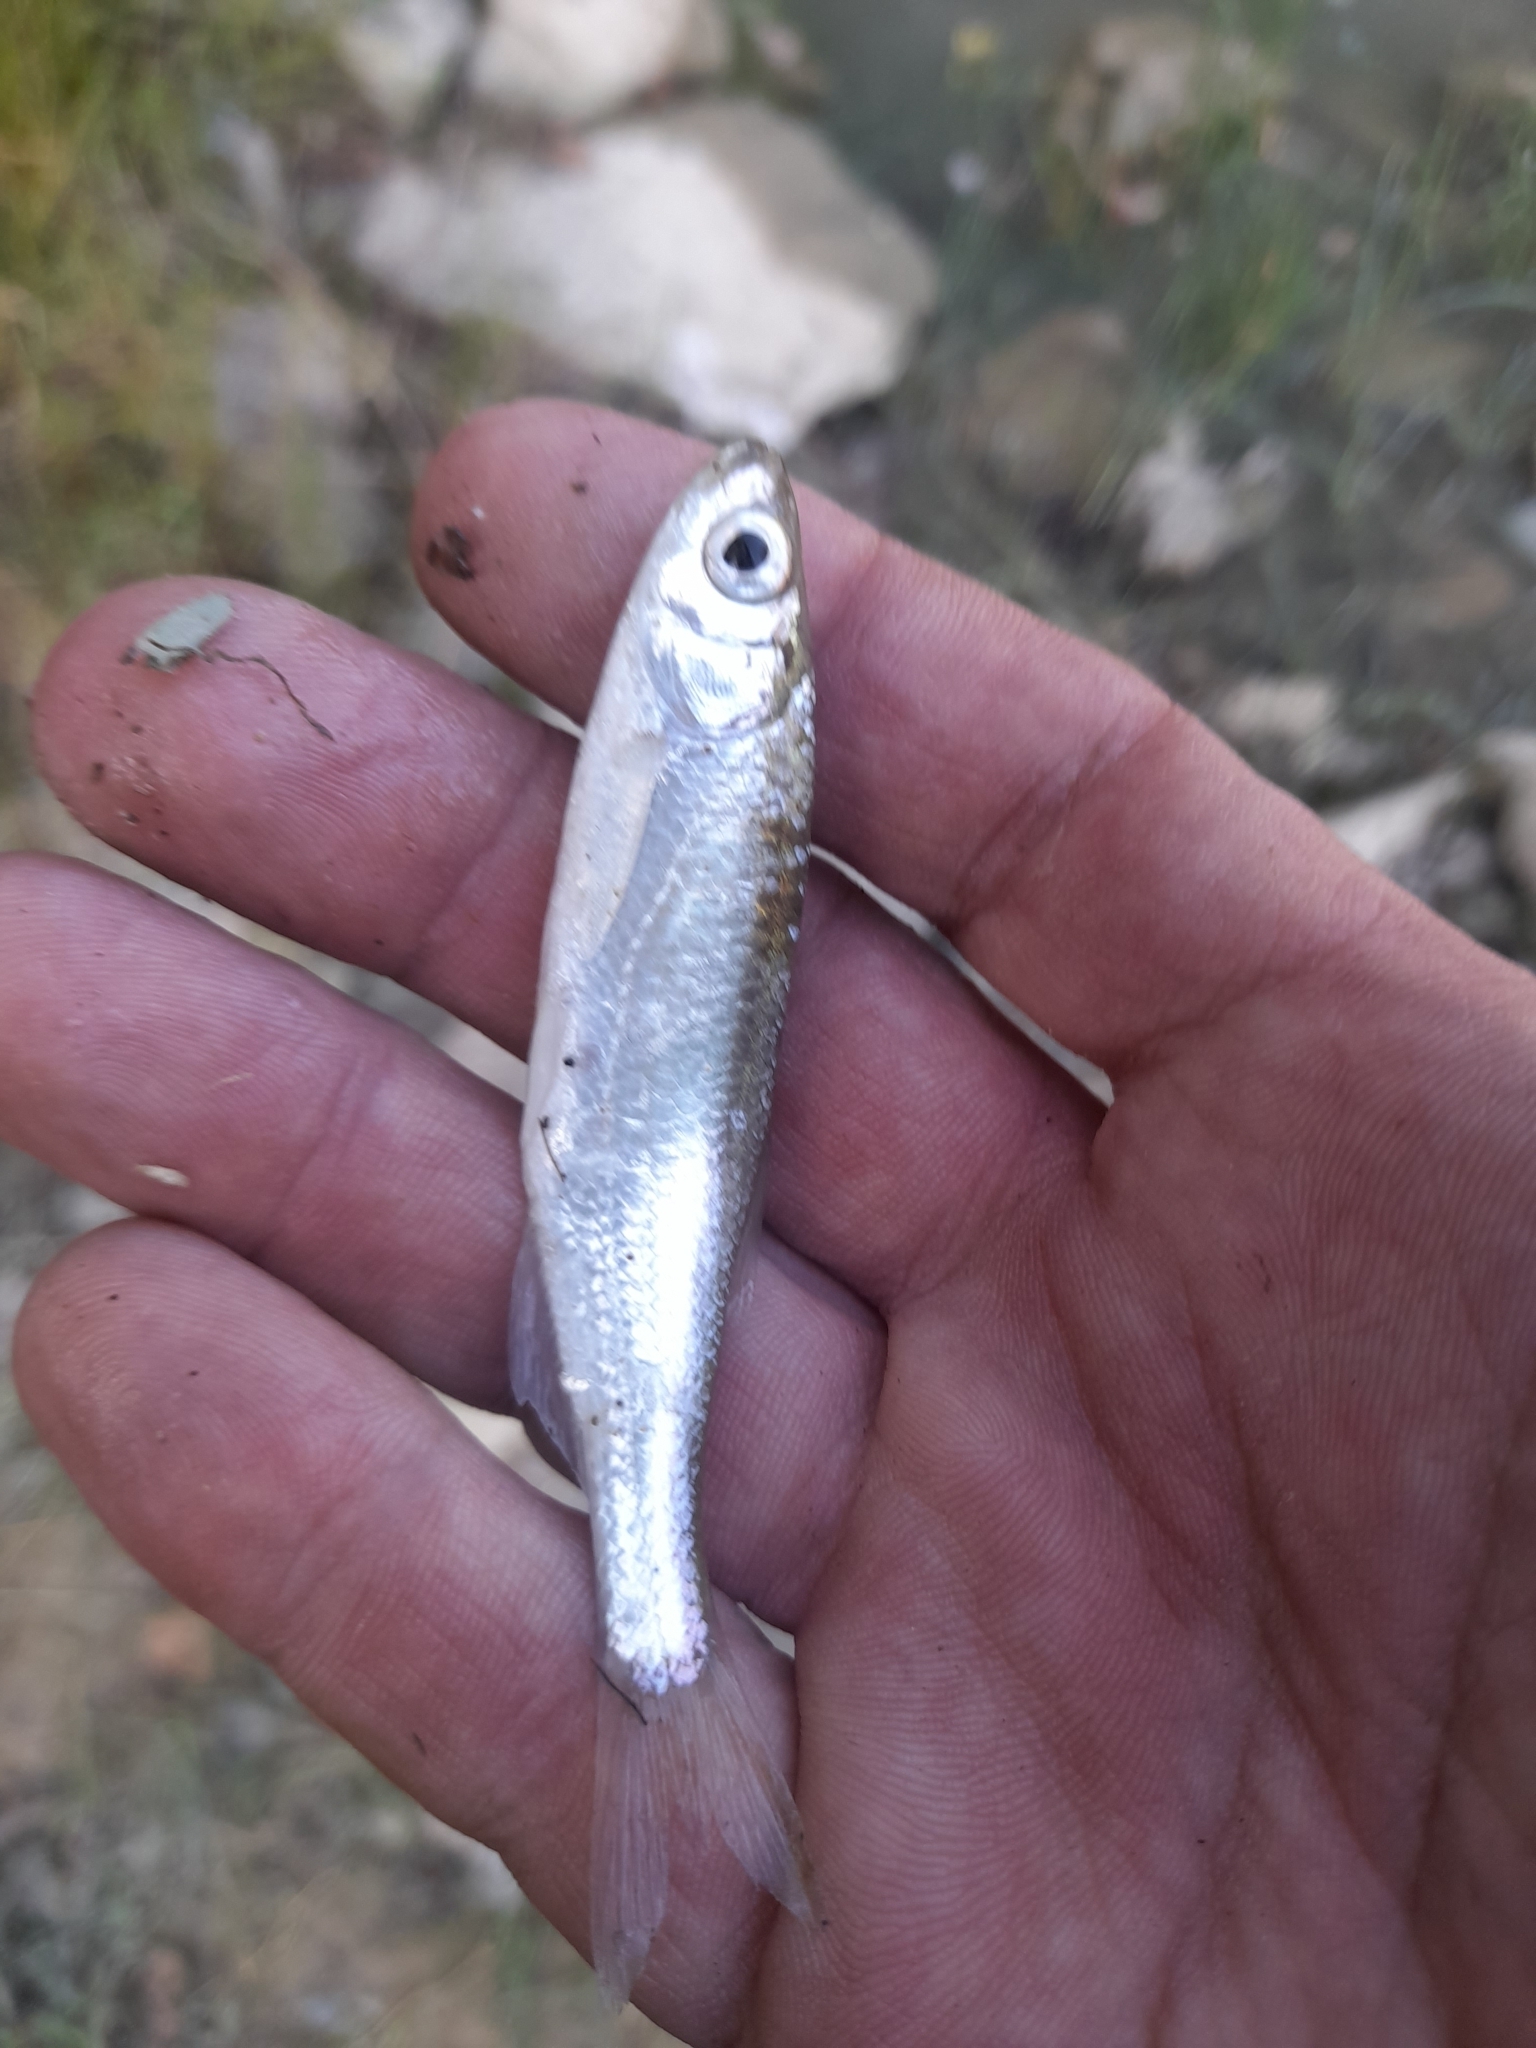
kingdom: Animalia
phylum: Chordata
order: Cypriniformes
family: Cyprinidae
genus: Alburnus
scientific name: Alburnus arborella
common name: Alborella
